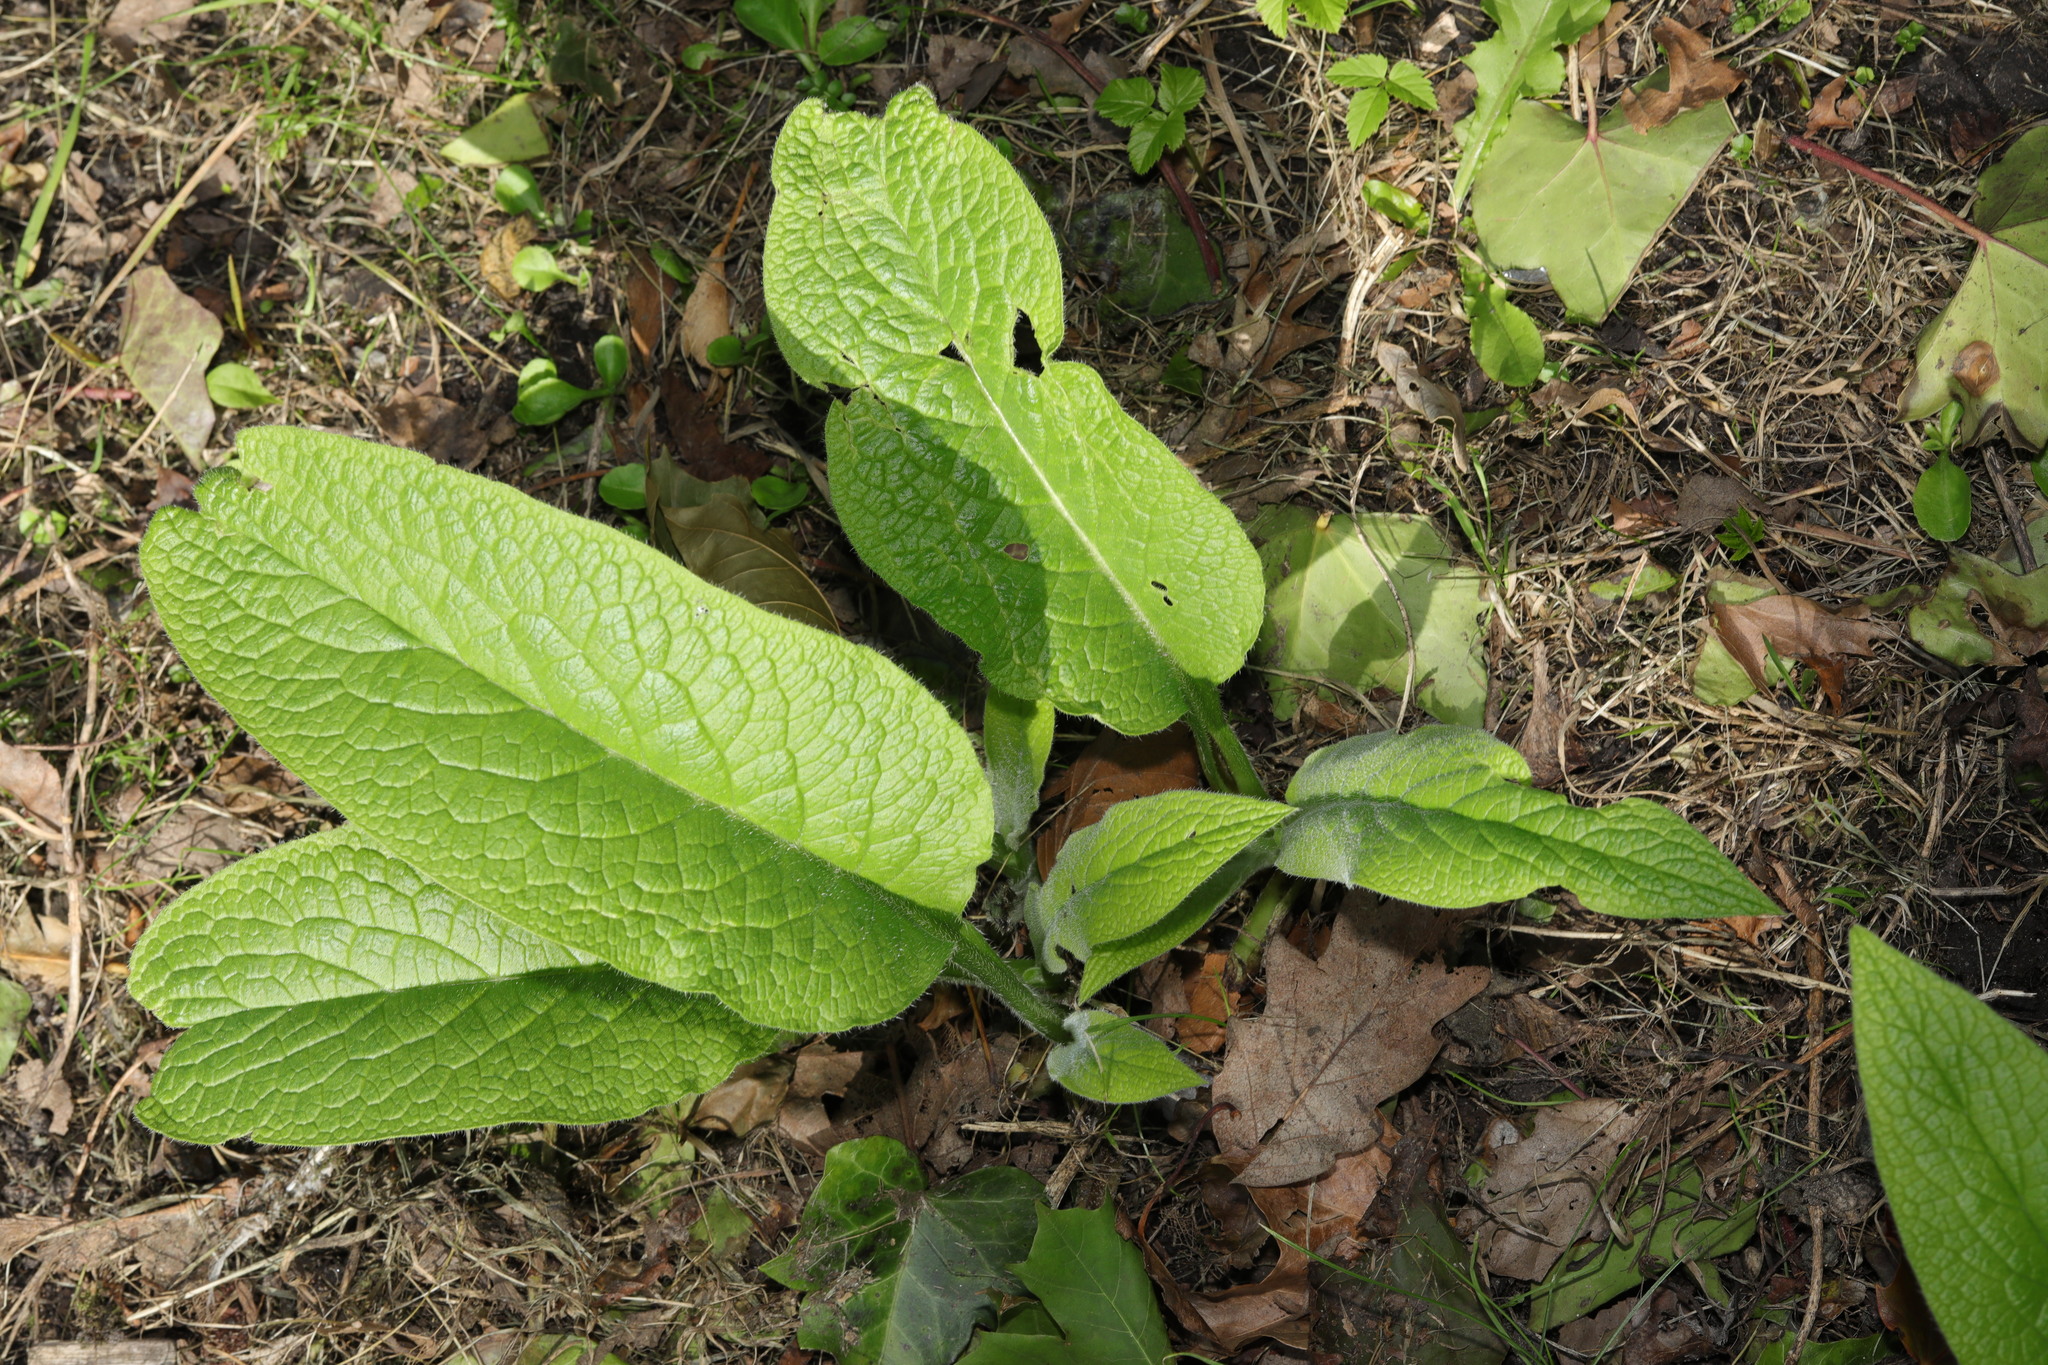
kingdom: Plantae
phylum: Tracheophyta
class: Magnoliopsida
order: Boraginales
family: Boraginaceae
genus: Symphytum
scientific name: Symphytum officinale
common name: Common comfrey
